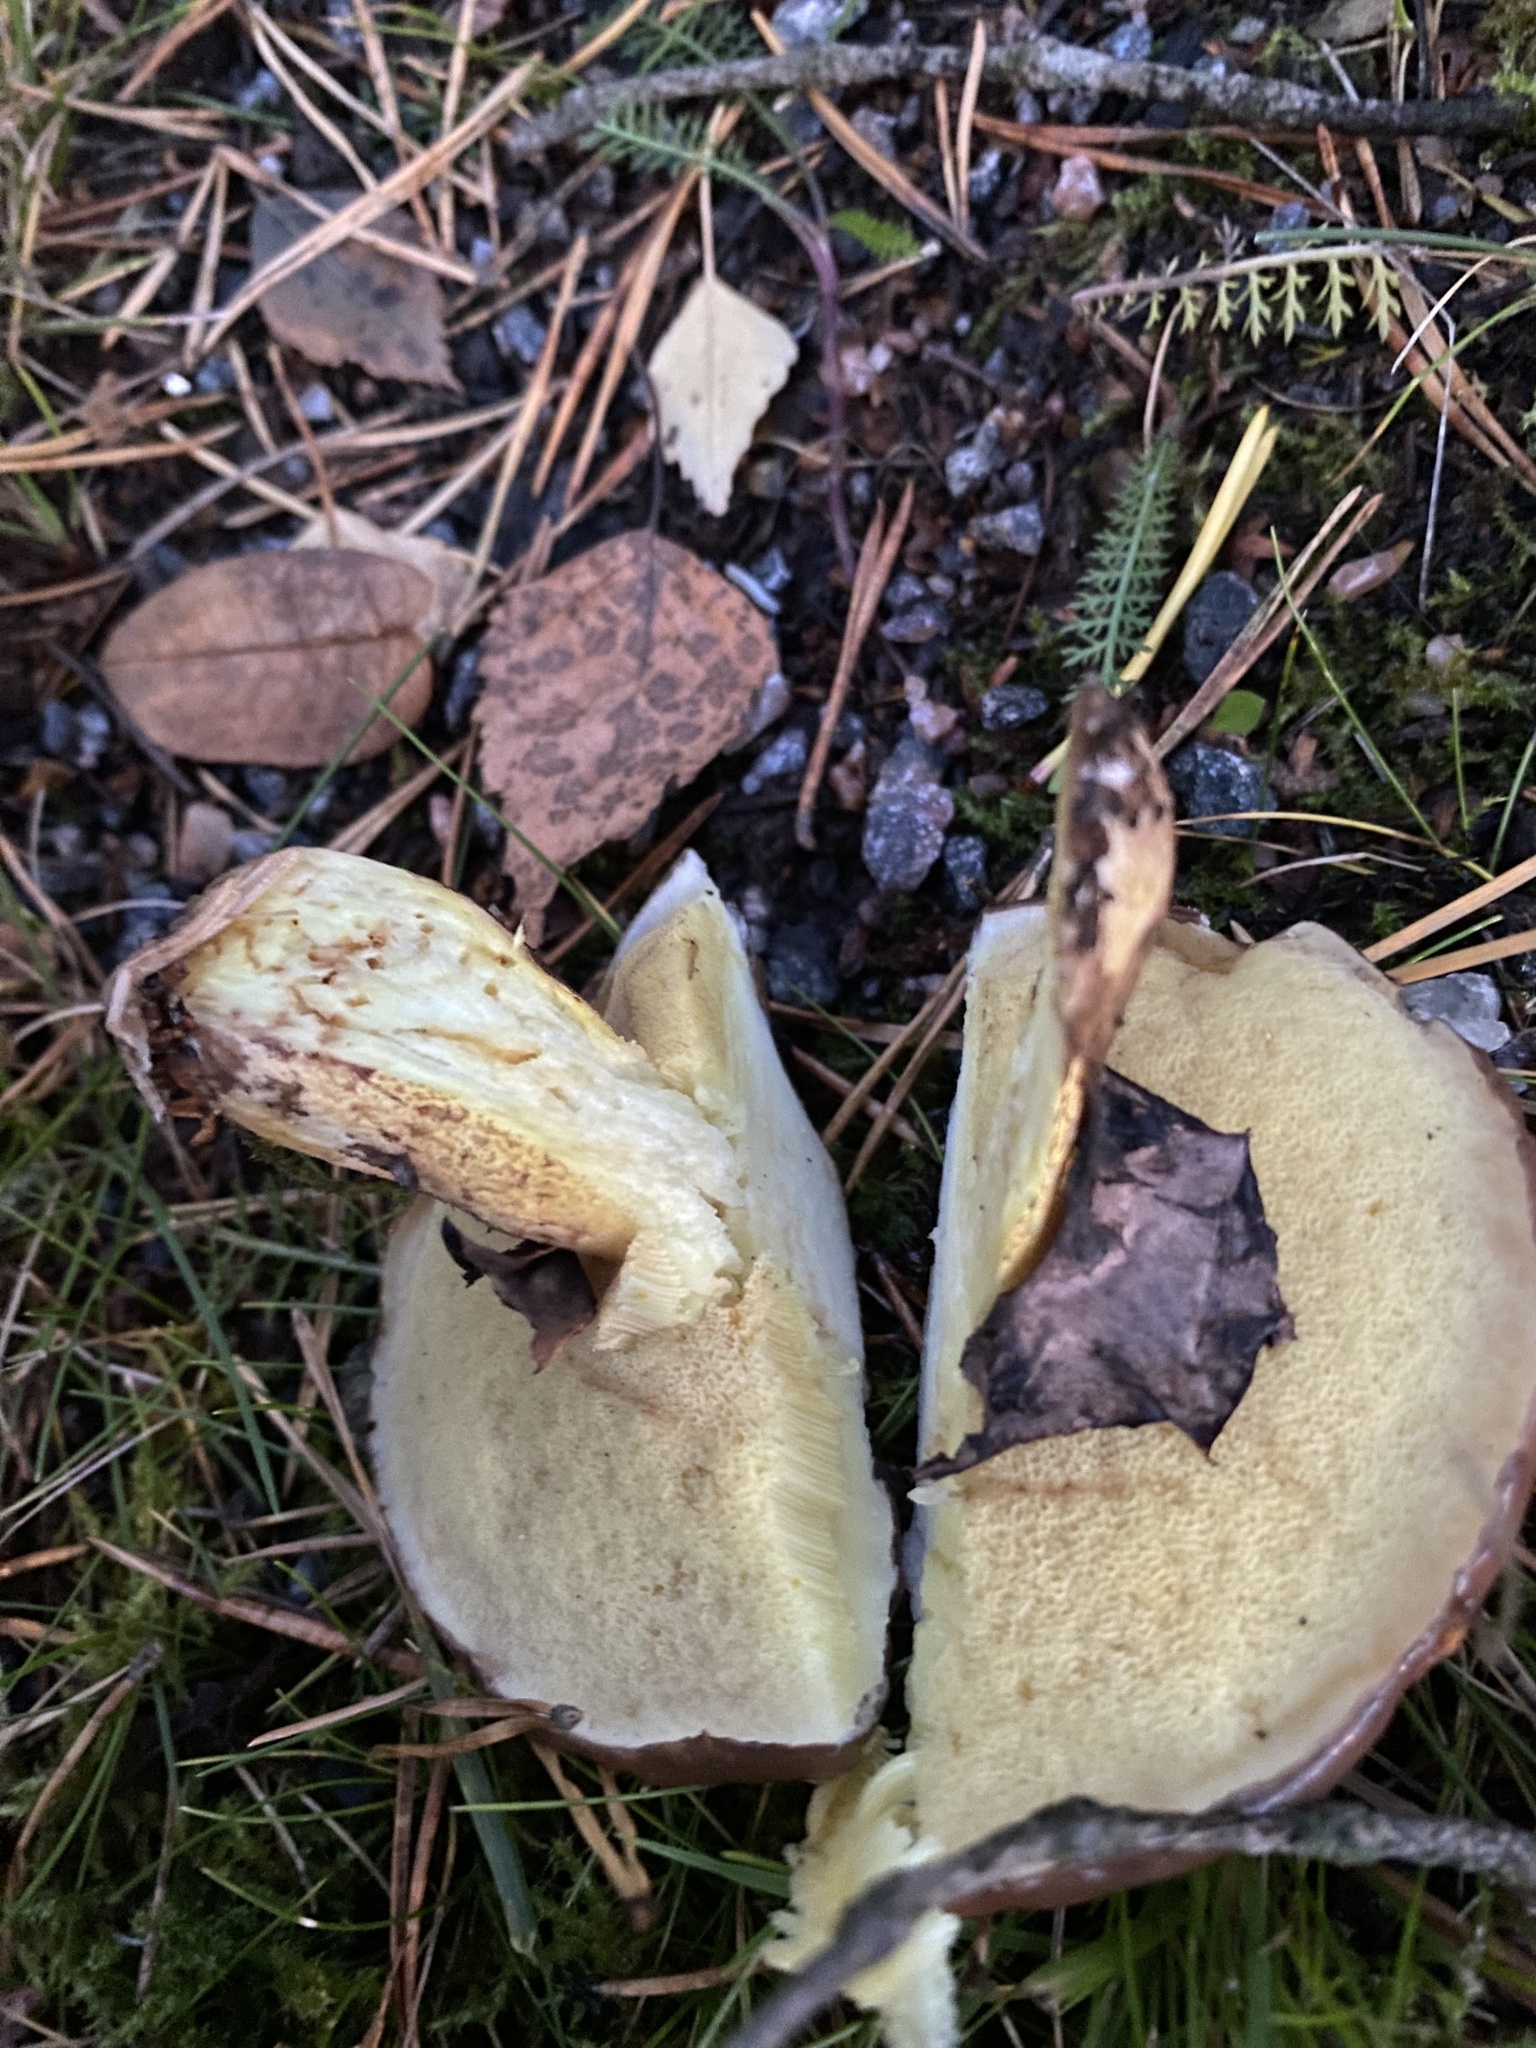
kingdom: Fungi
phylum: Basidiomycota
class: Agaricomycetes
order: Boletales
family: Suillaceae
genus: Suillus
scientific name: Suillus luteus
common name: Slippery jack
